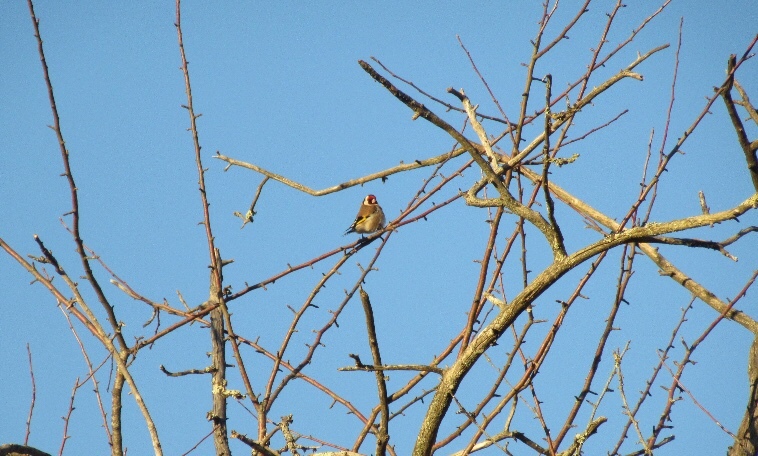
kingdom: Animalia
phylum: Chordata
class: Aves
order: Passeriformes
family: Fringillidae
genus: Carduelis
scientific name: Carduelis carduelis
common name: European goldfinch
